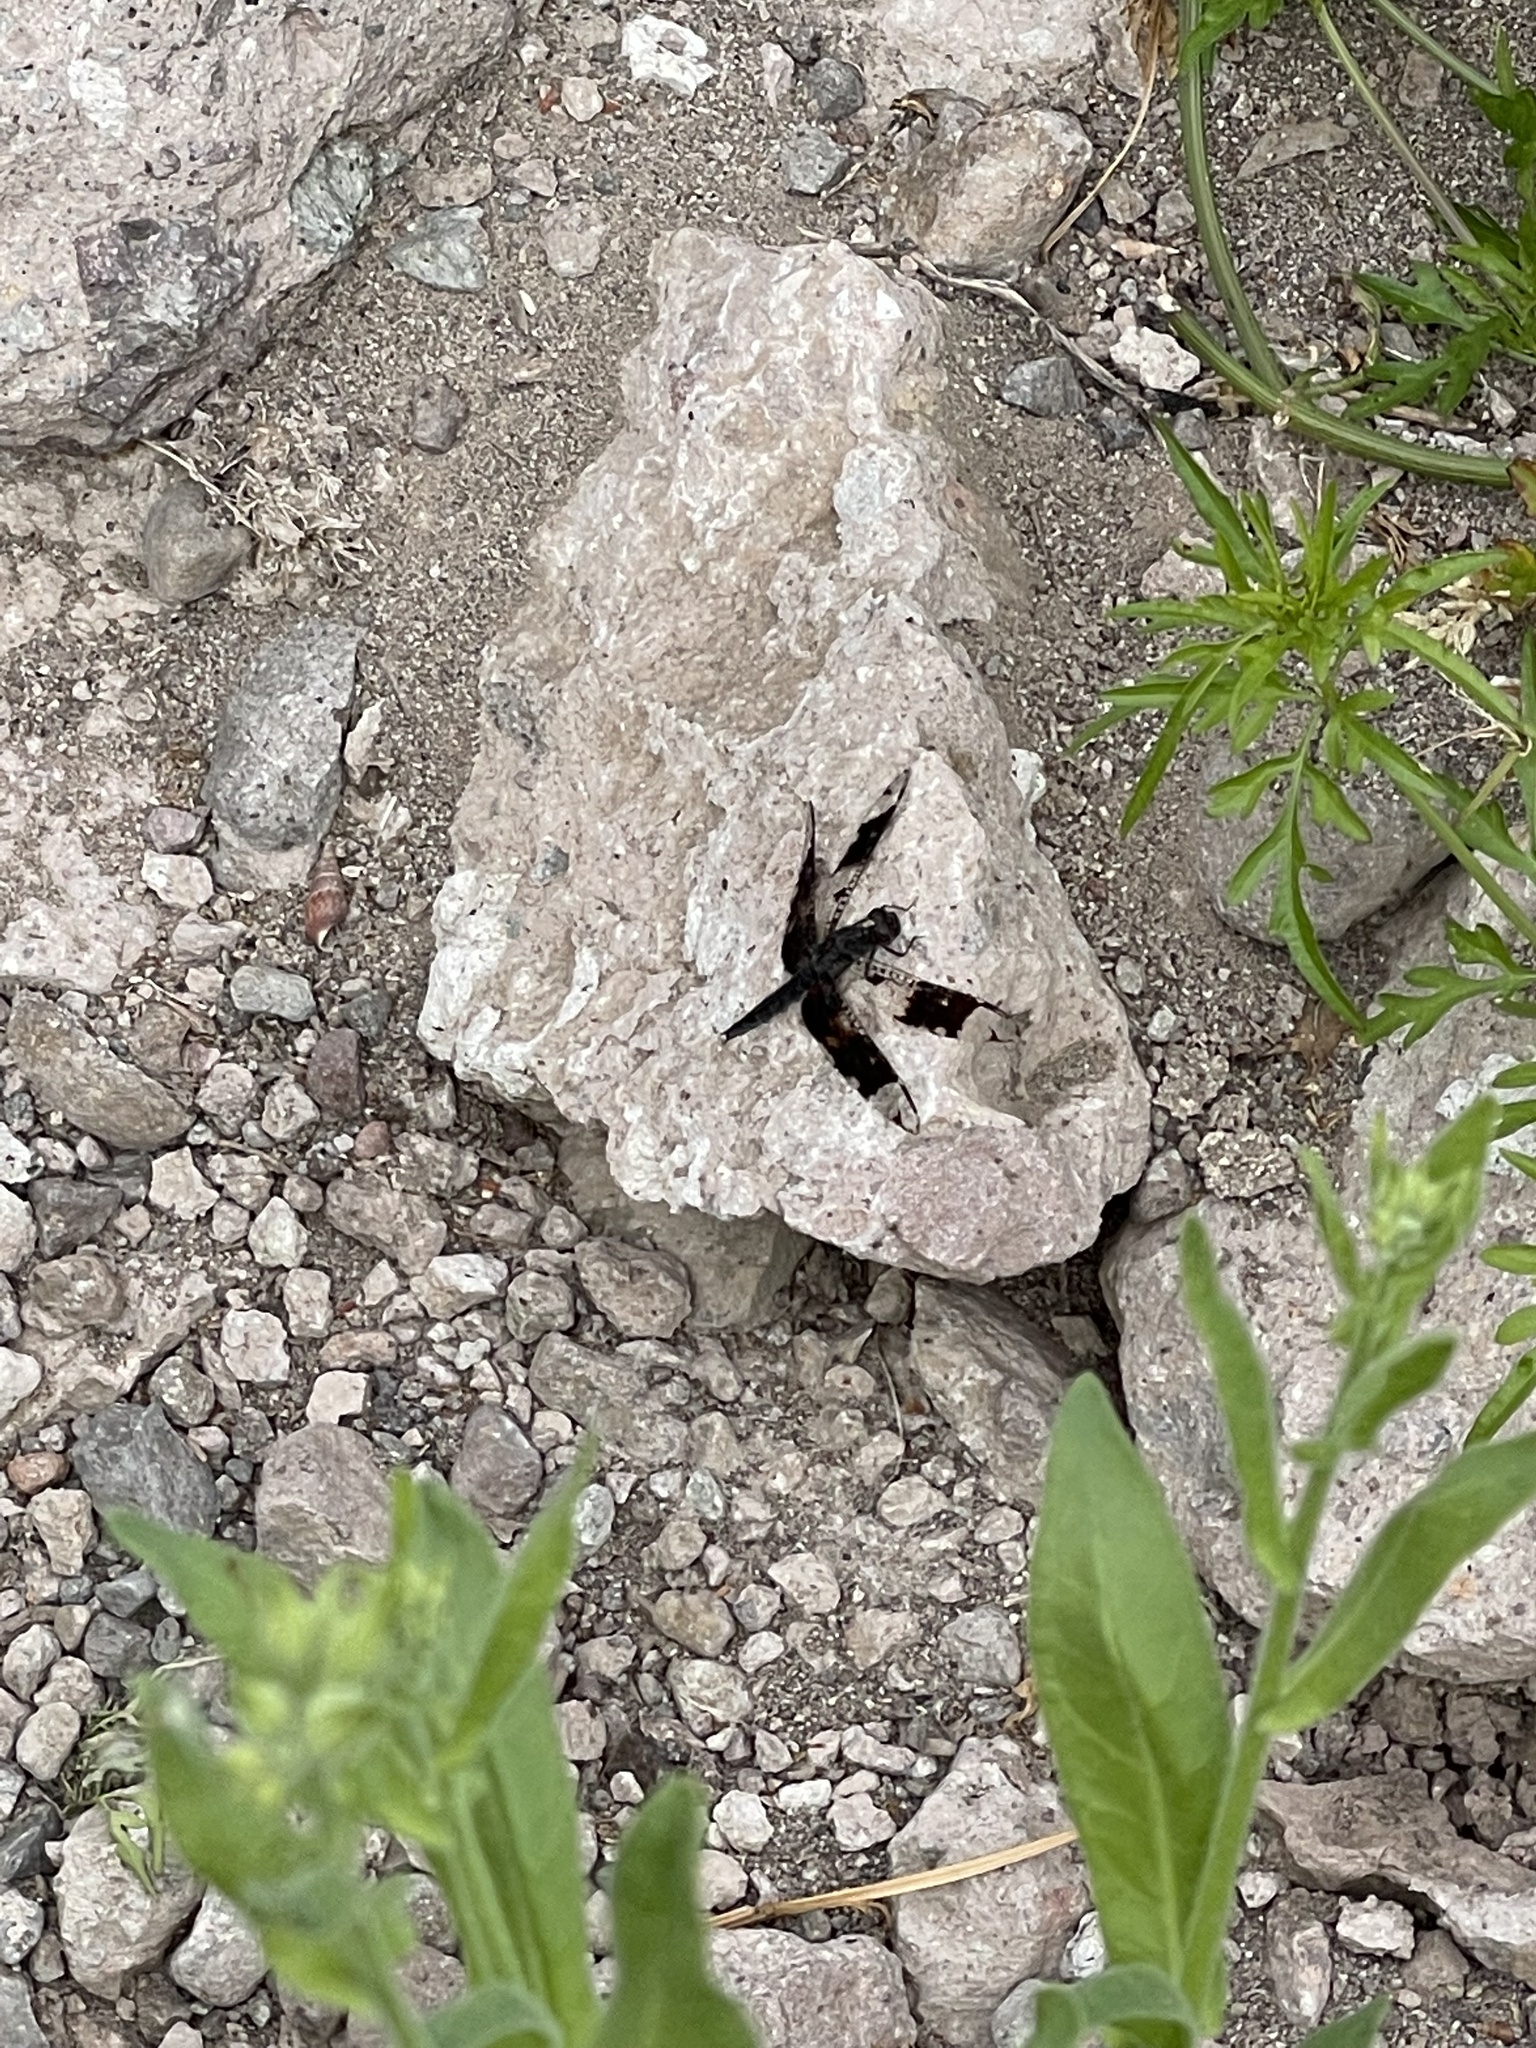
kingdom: Animalia
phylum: Arthropoda
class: Insecta
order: Odonata
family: Libellulidae
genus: Pseudoleon
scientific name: Pseudoleon superbus
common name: Filigree skimmer
